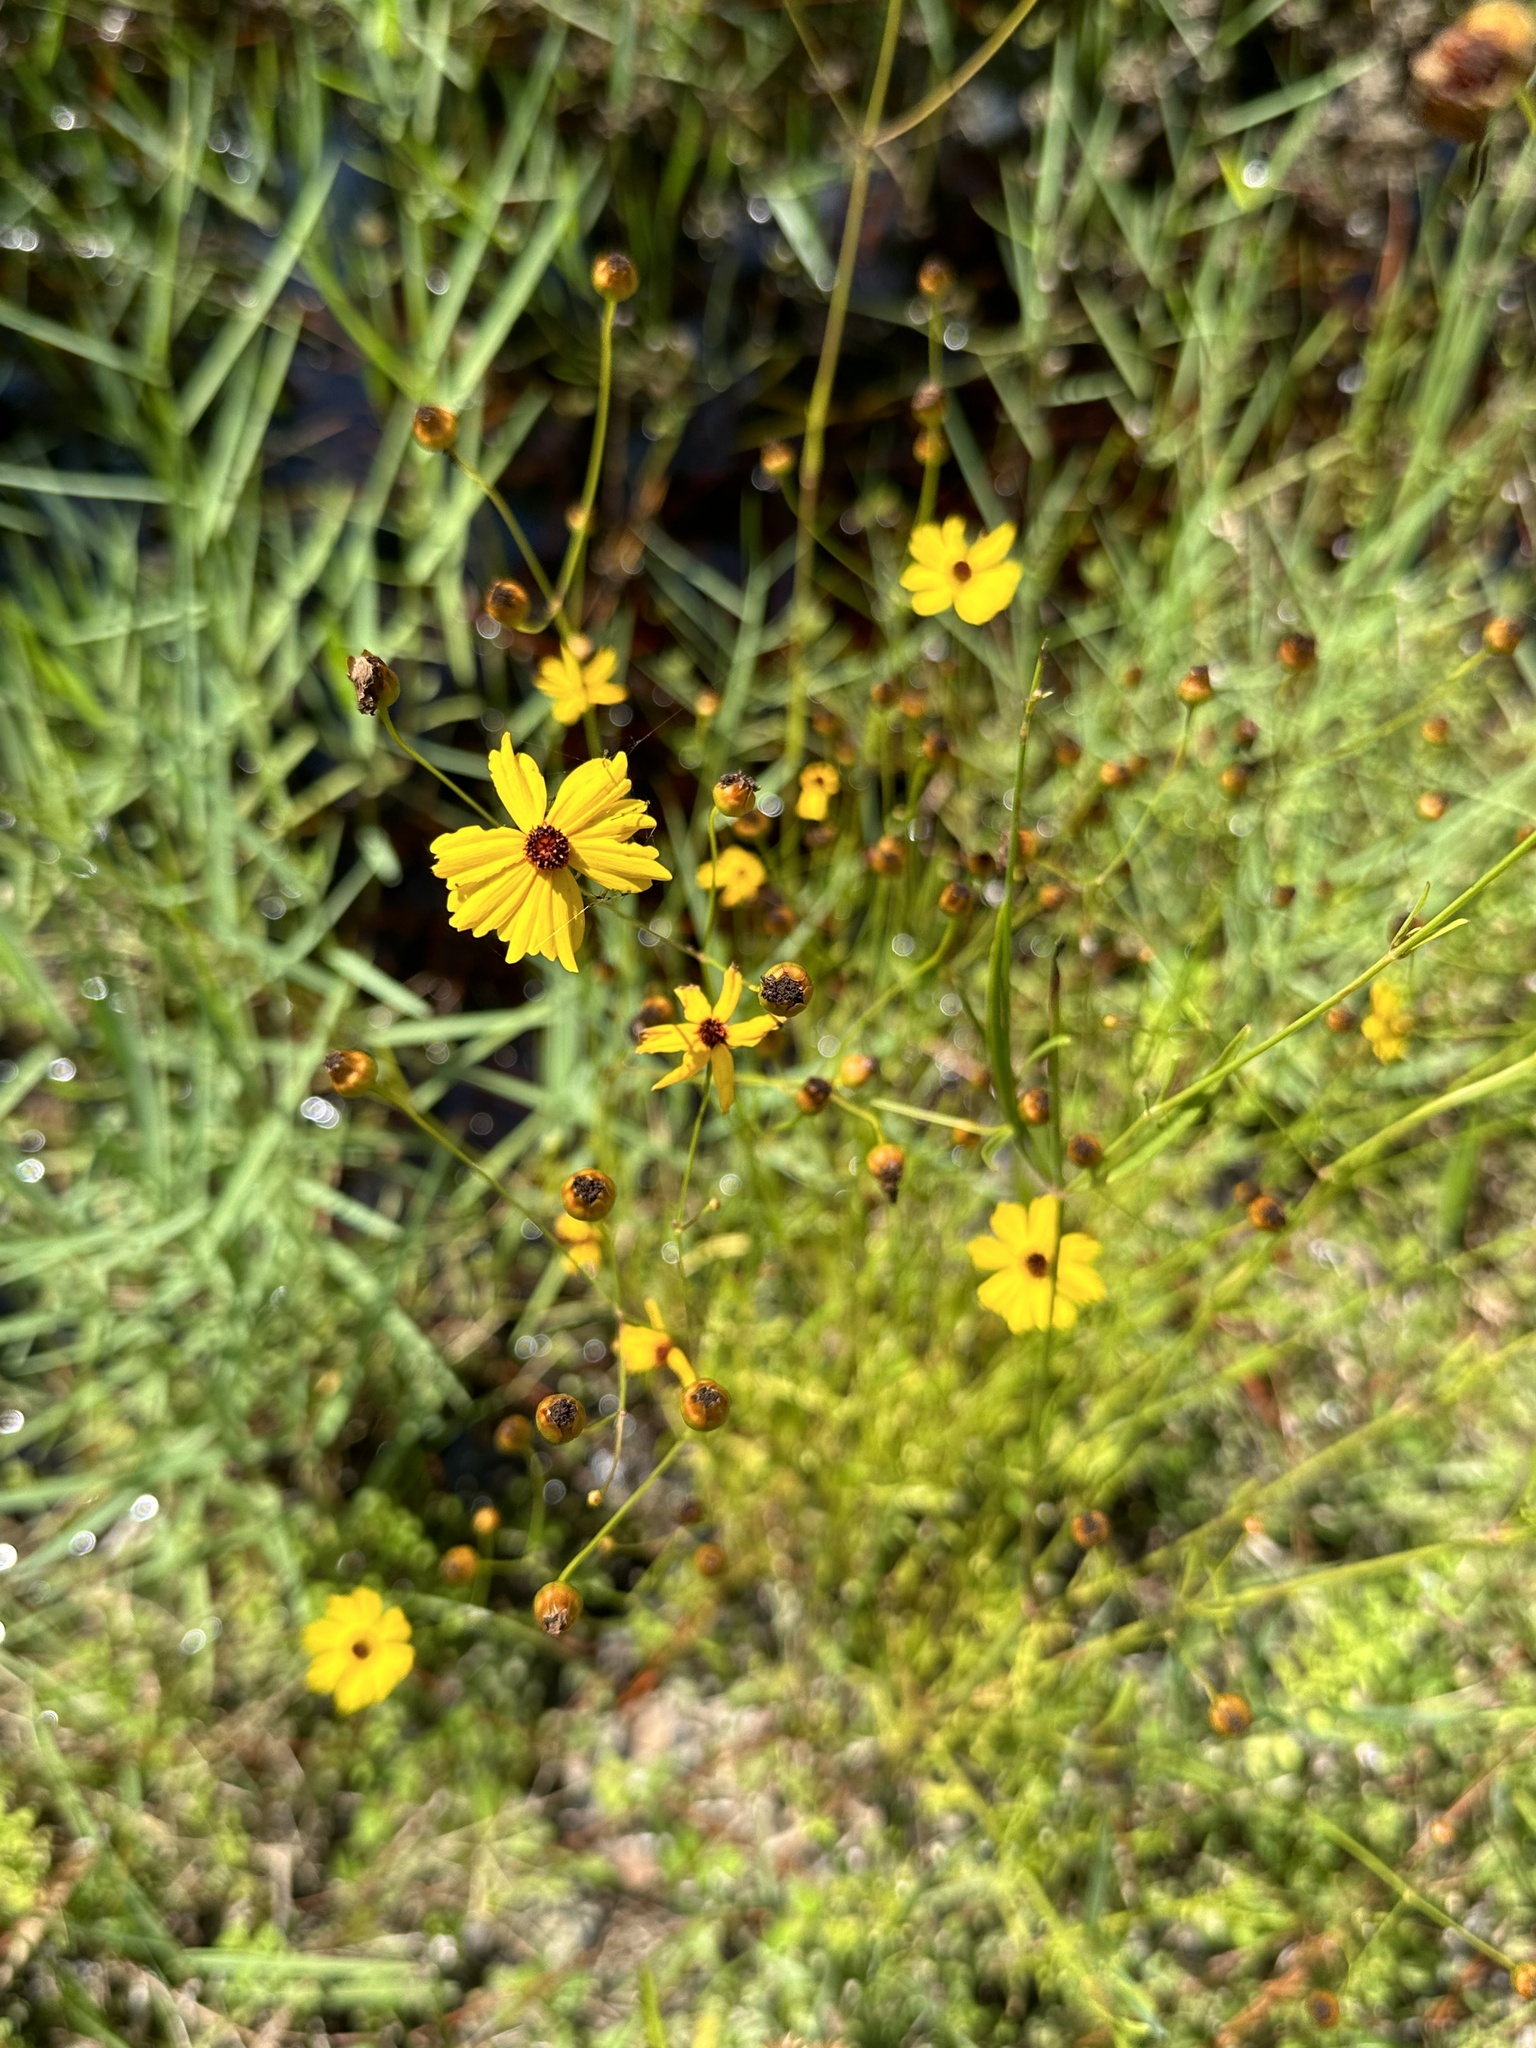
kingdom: Plantae
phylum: Tracheophyta
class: Magnoliopsida
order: Asterales
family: Asteraceae
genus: Coreopsis
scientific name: Coreopsis leavenworthii
